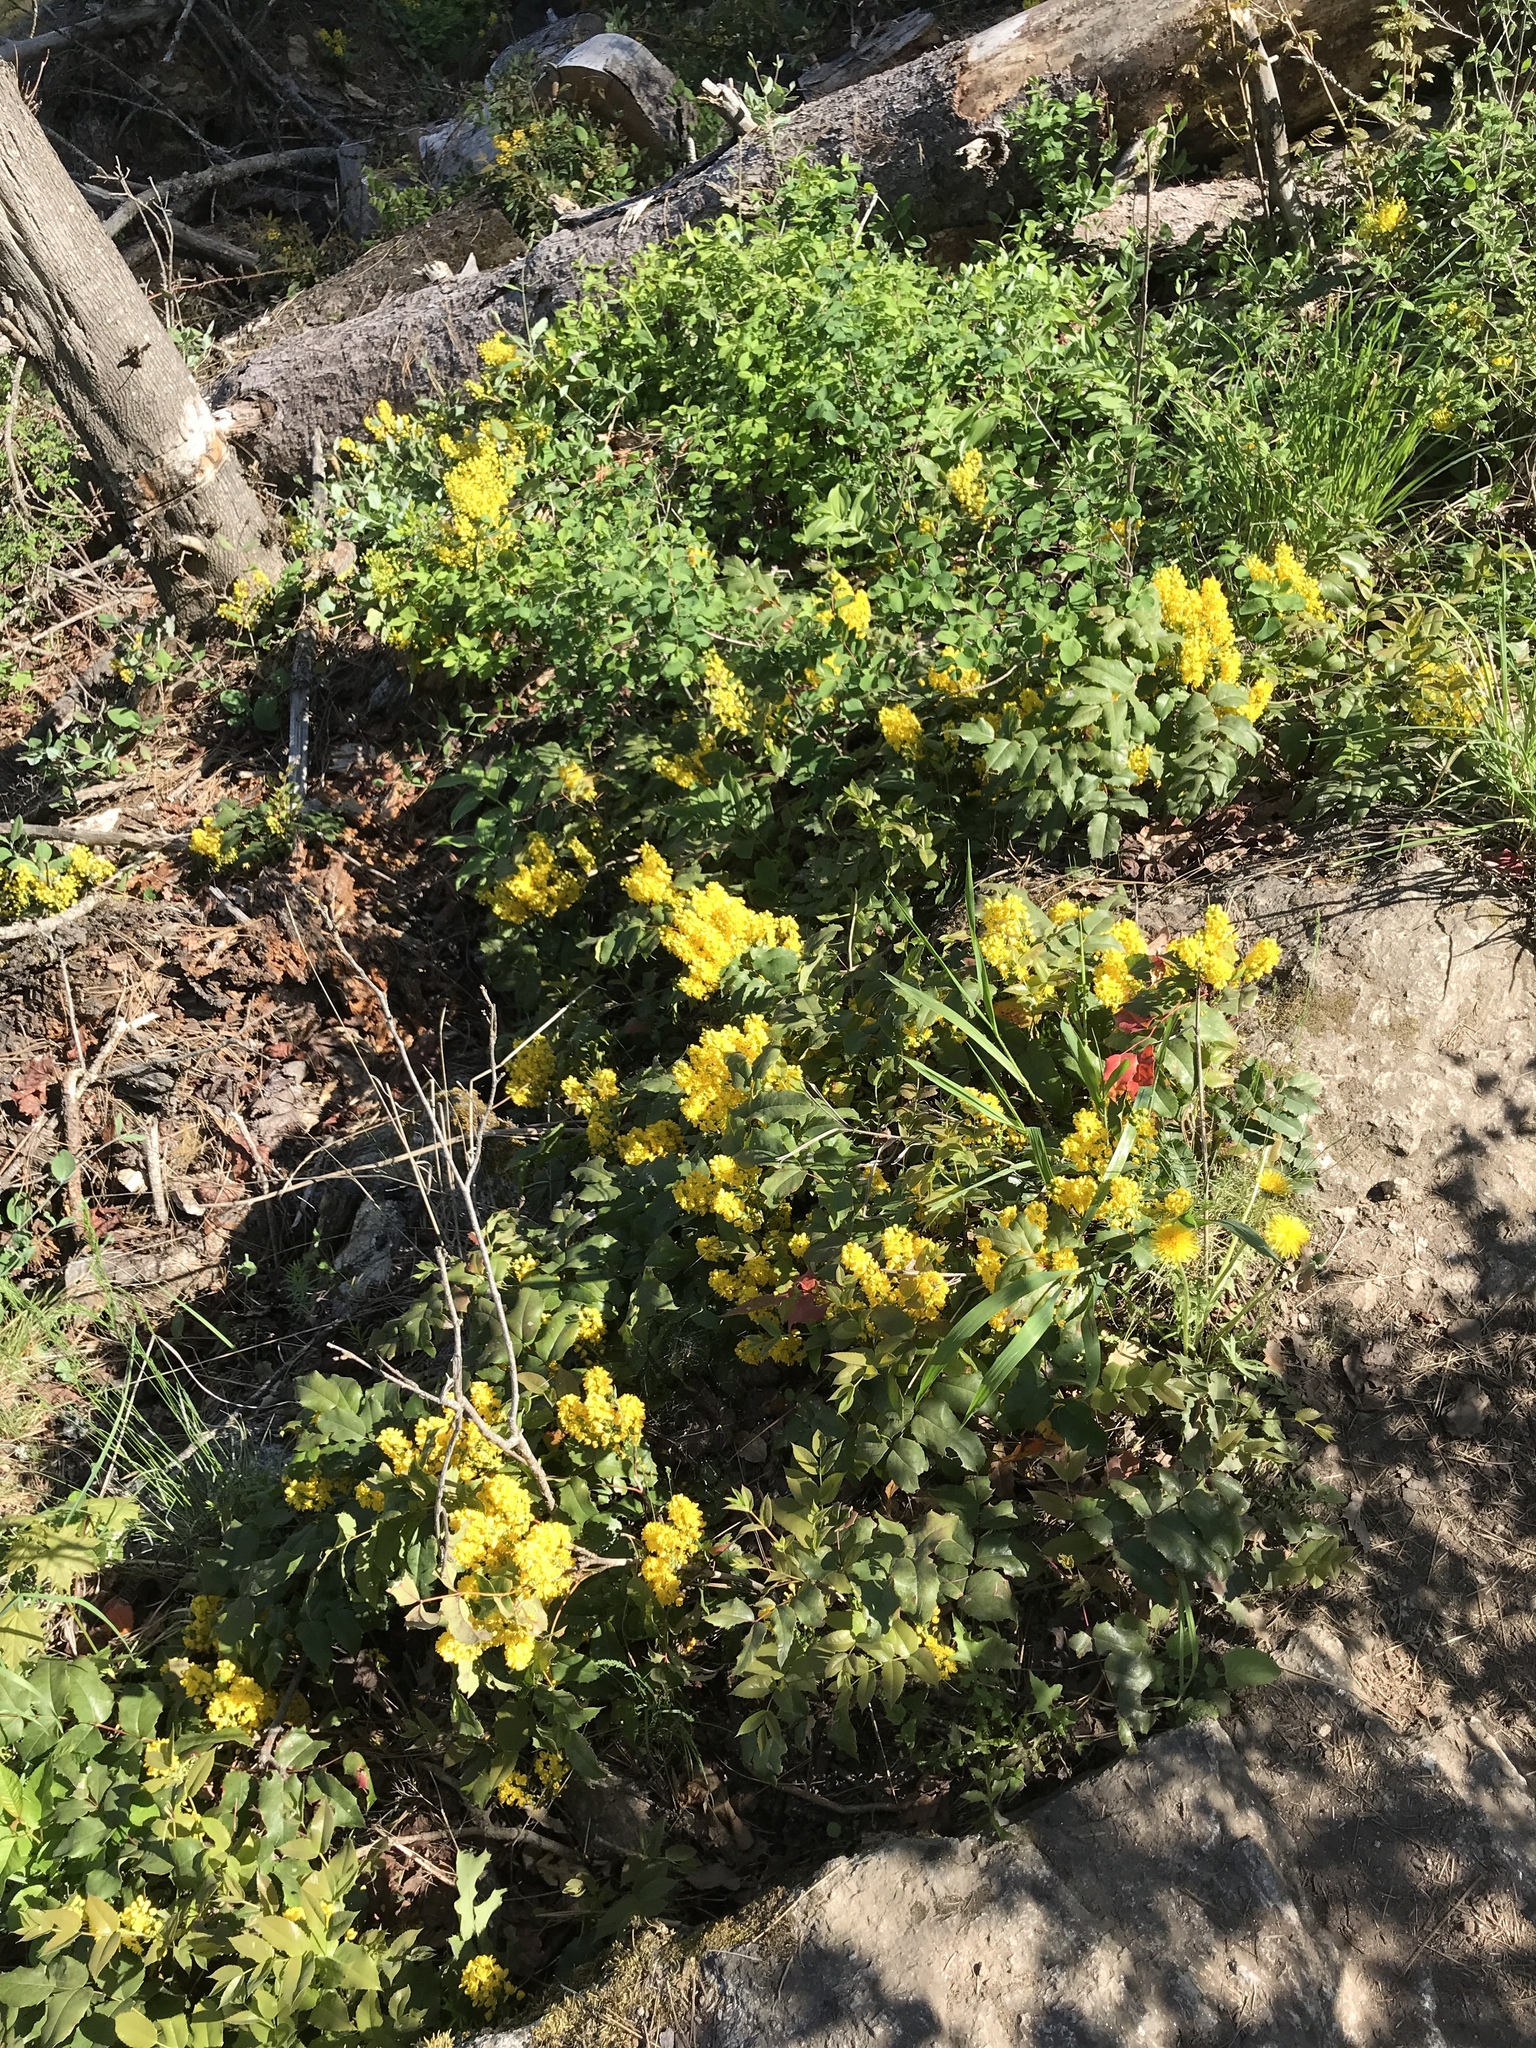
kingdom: Plantae
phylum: Tracheophyta
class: Magnoliopsida
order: Ranunculales
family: Berberidaceae
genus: Mahonia
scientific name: Mahonia repens
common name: Creeping oregon-grape
